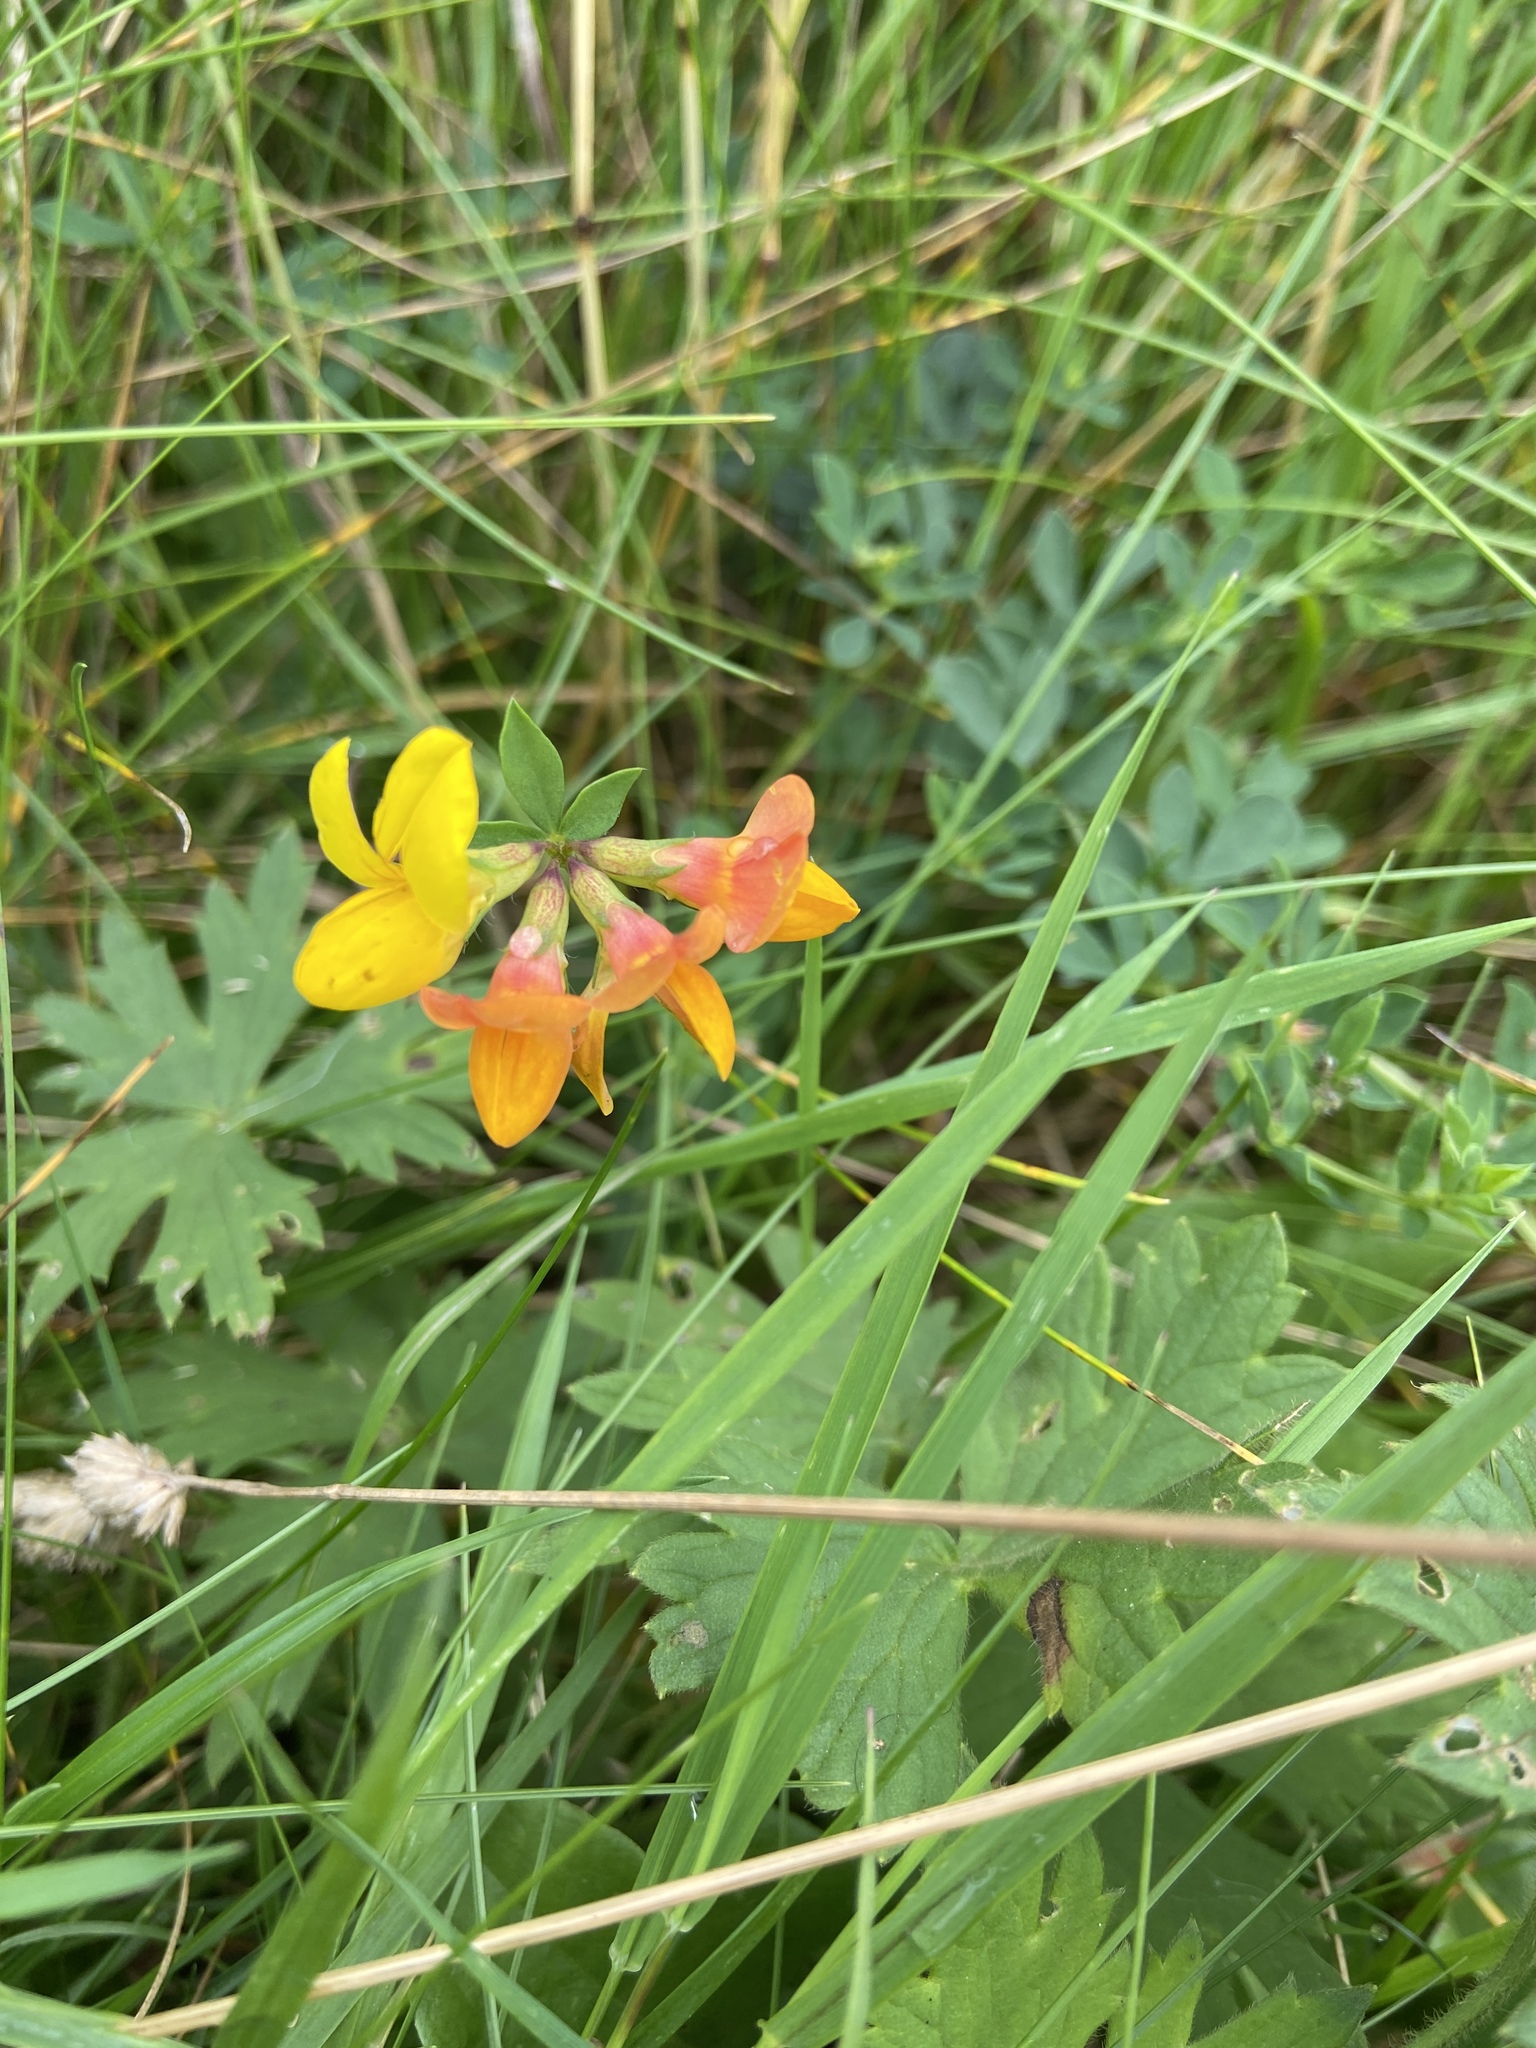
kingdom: Plantae
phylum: Tracheophyta
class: Magnoliopsida
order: Fabales
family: Fabaceae
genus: Lotus
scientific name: Lotus corniculatus
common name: Common bird's-foot-trefoil
